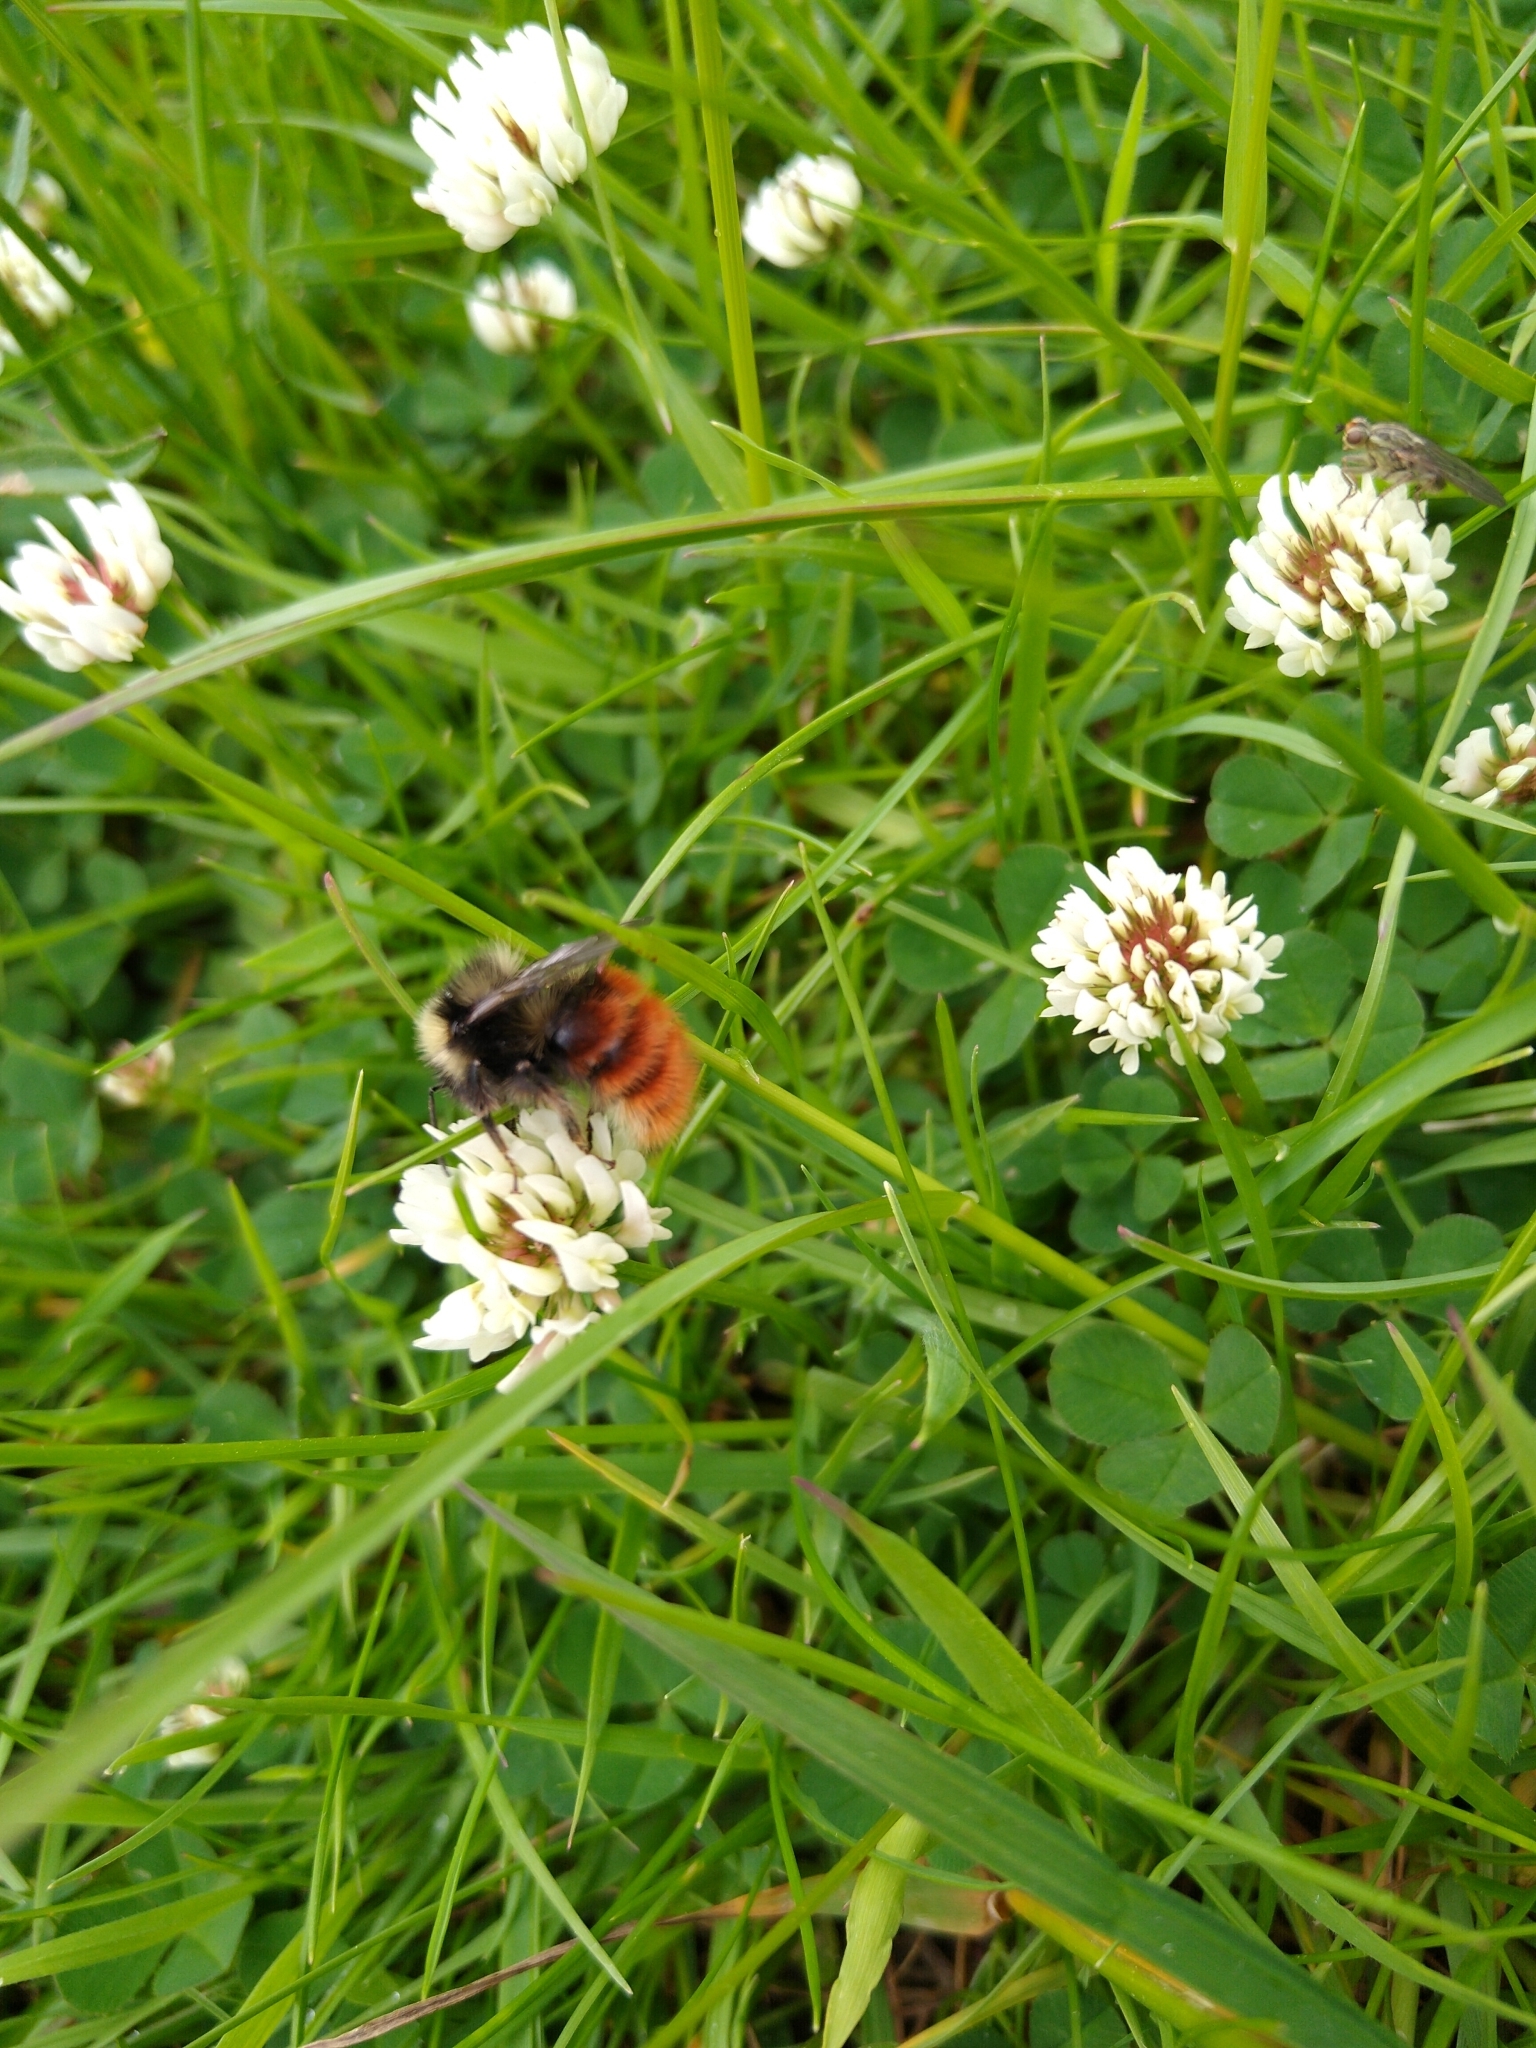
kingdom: Animalia
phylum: Arthropoda
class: Insecta
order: Hymenoptera
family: Apidae
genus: Bombus
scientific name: Bombus monticola
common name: Bilberry humble-bee
